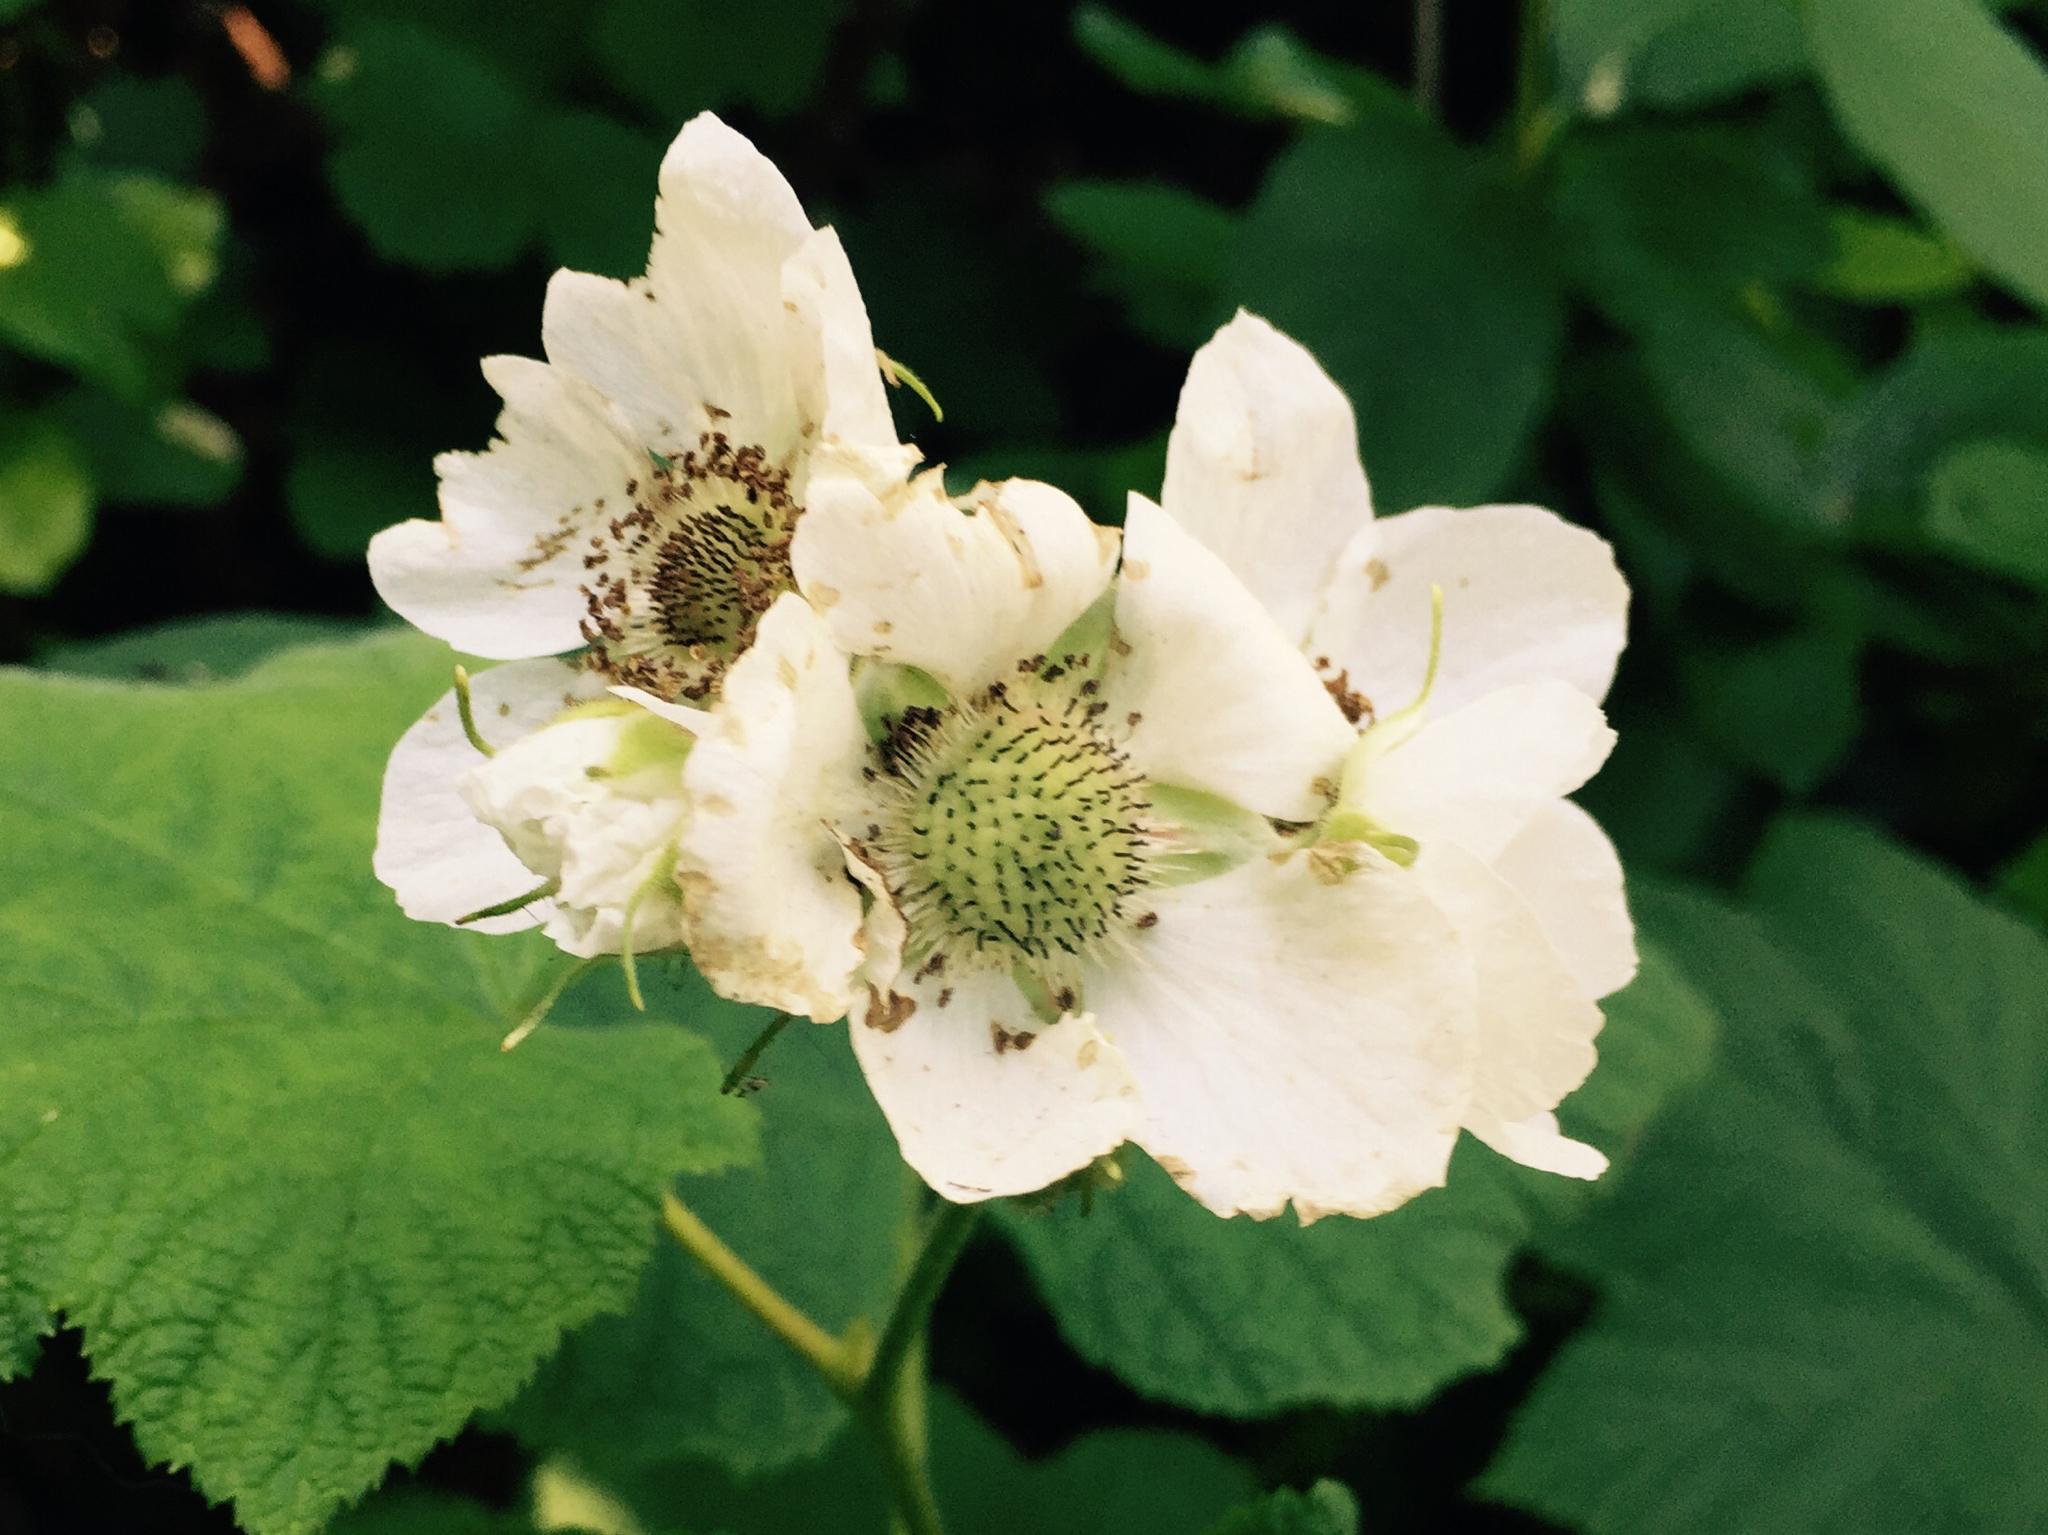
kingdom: Plantae
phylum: Tracheophyta
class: Magnoliopsida
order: Rosales
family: Rosaceae
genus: Rubus
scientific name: Rubus parviflorus
